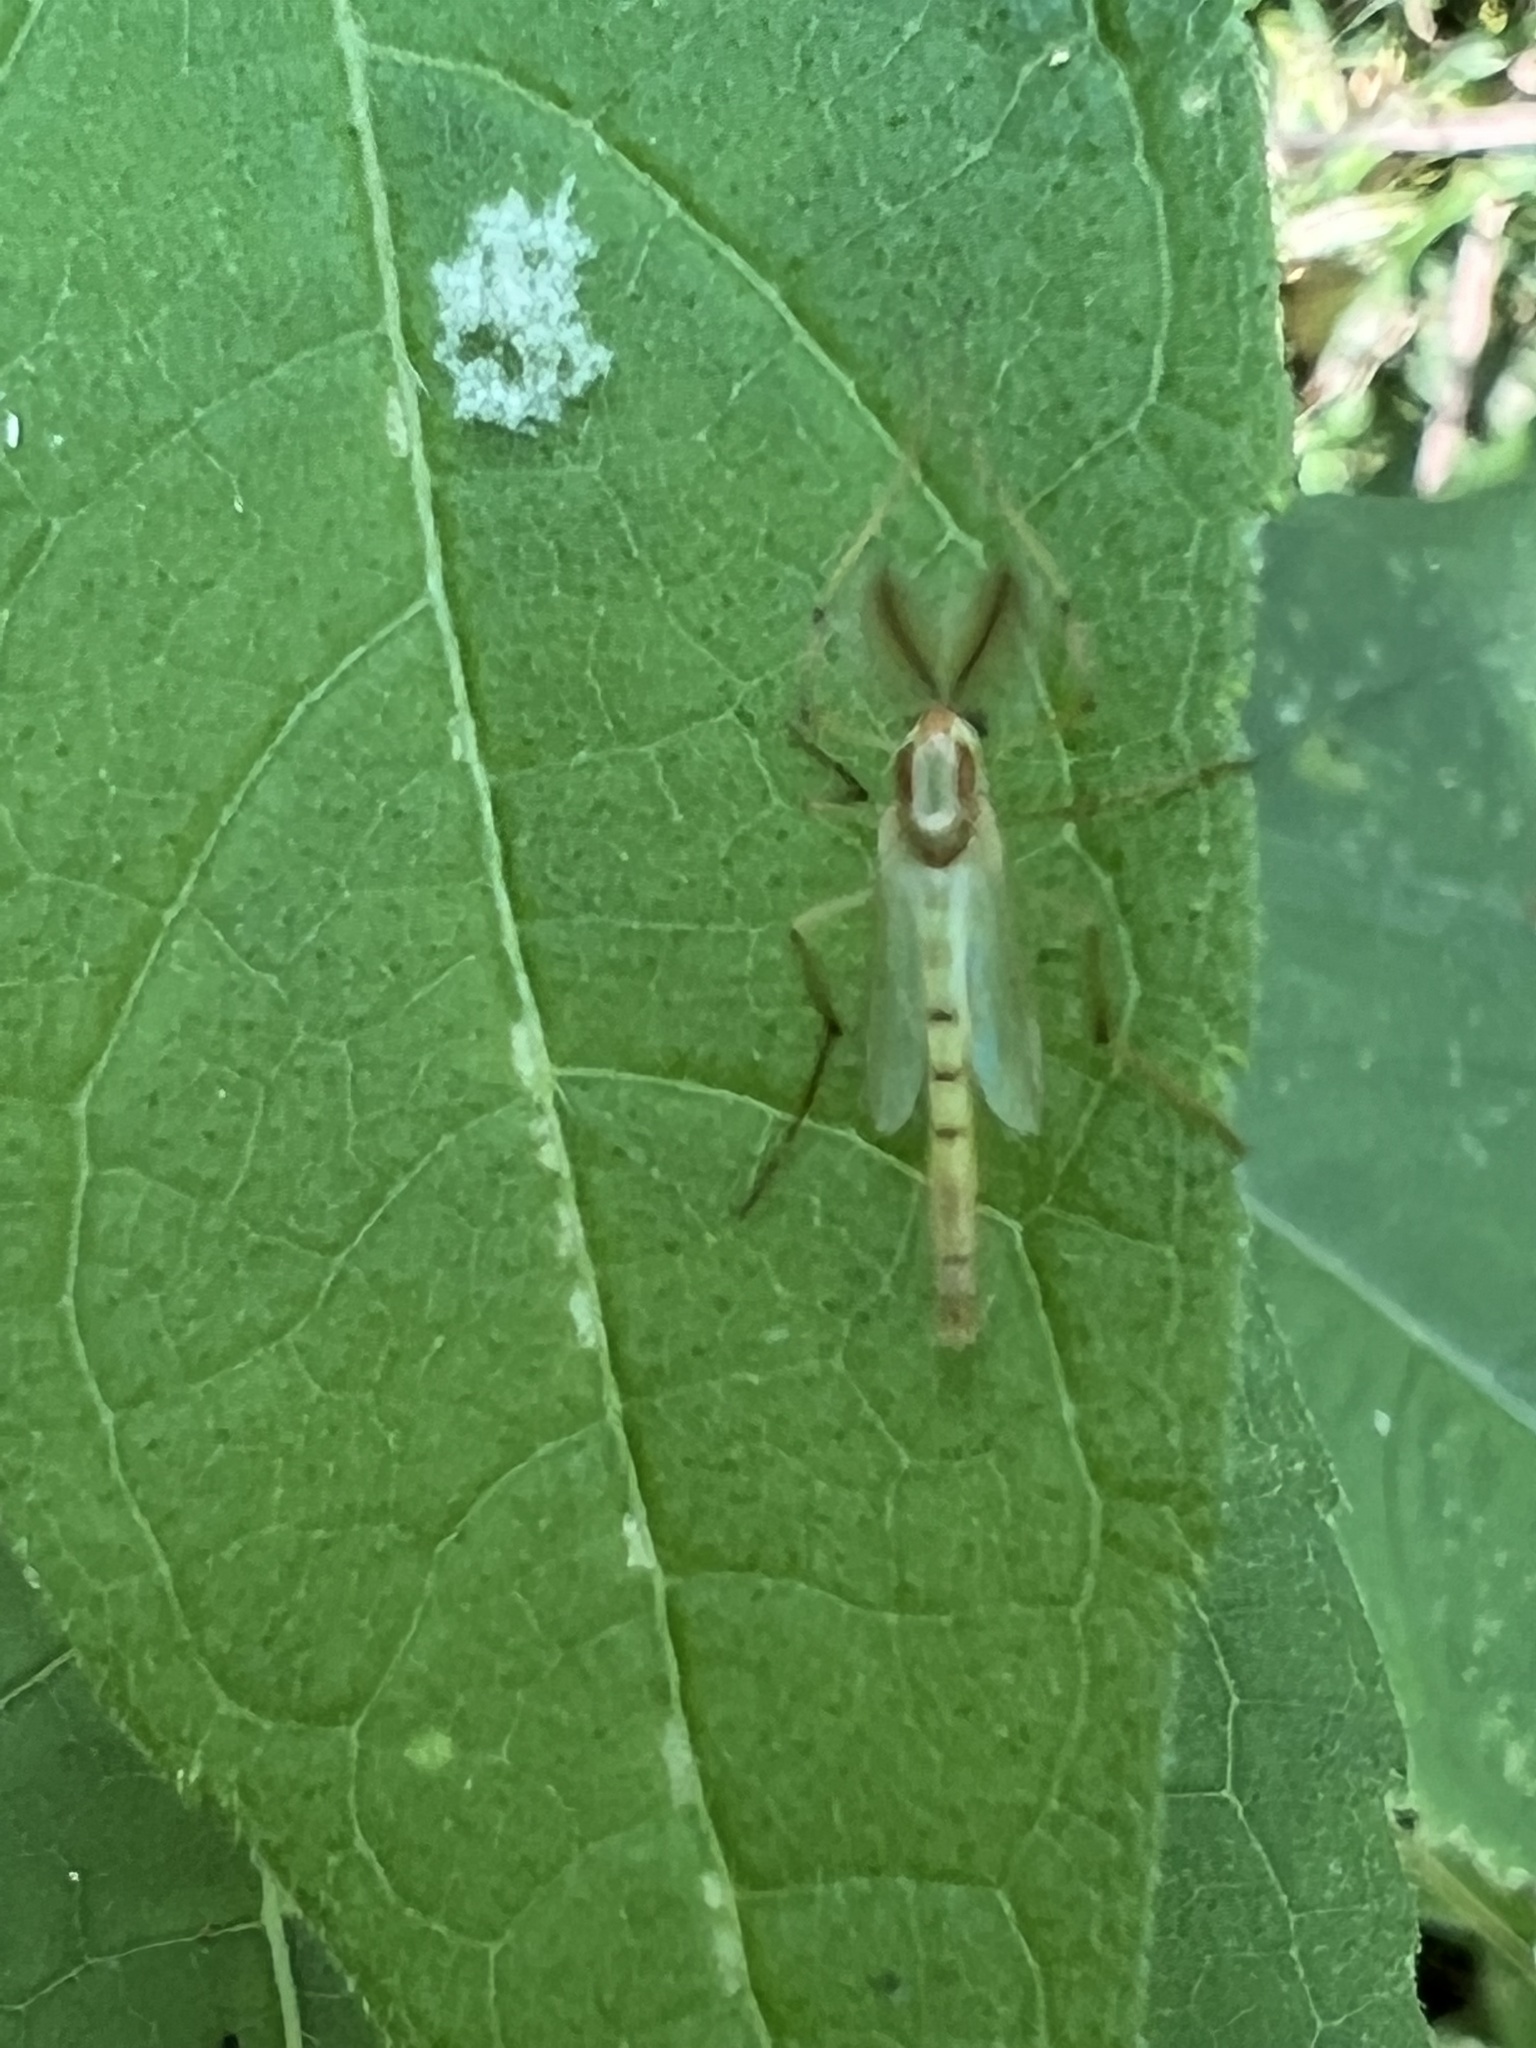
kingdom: Animalia
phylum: Arthropoda
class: Insecta
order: Diptera
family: Chironomidae
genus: Axarus
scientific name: Axarus
